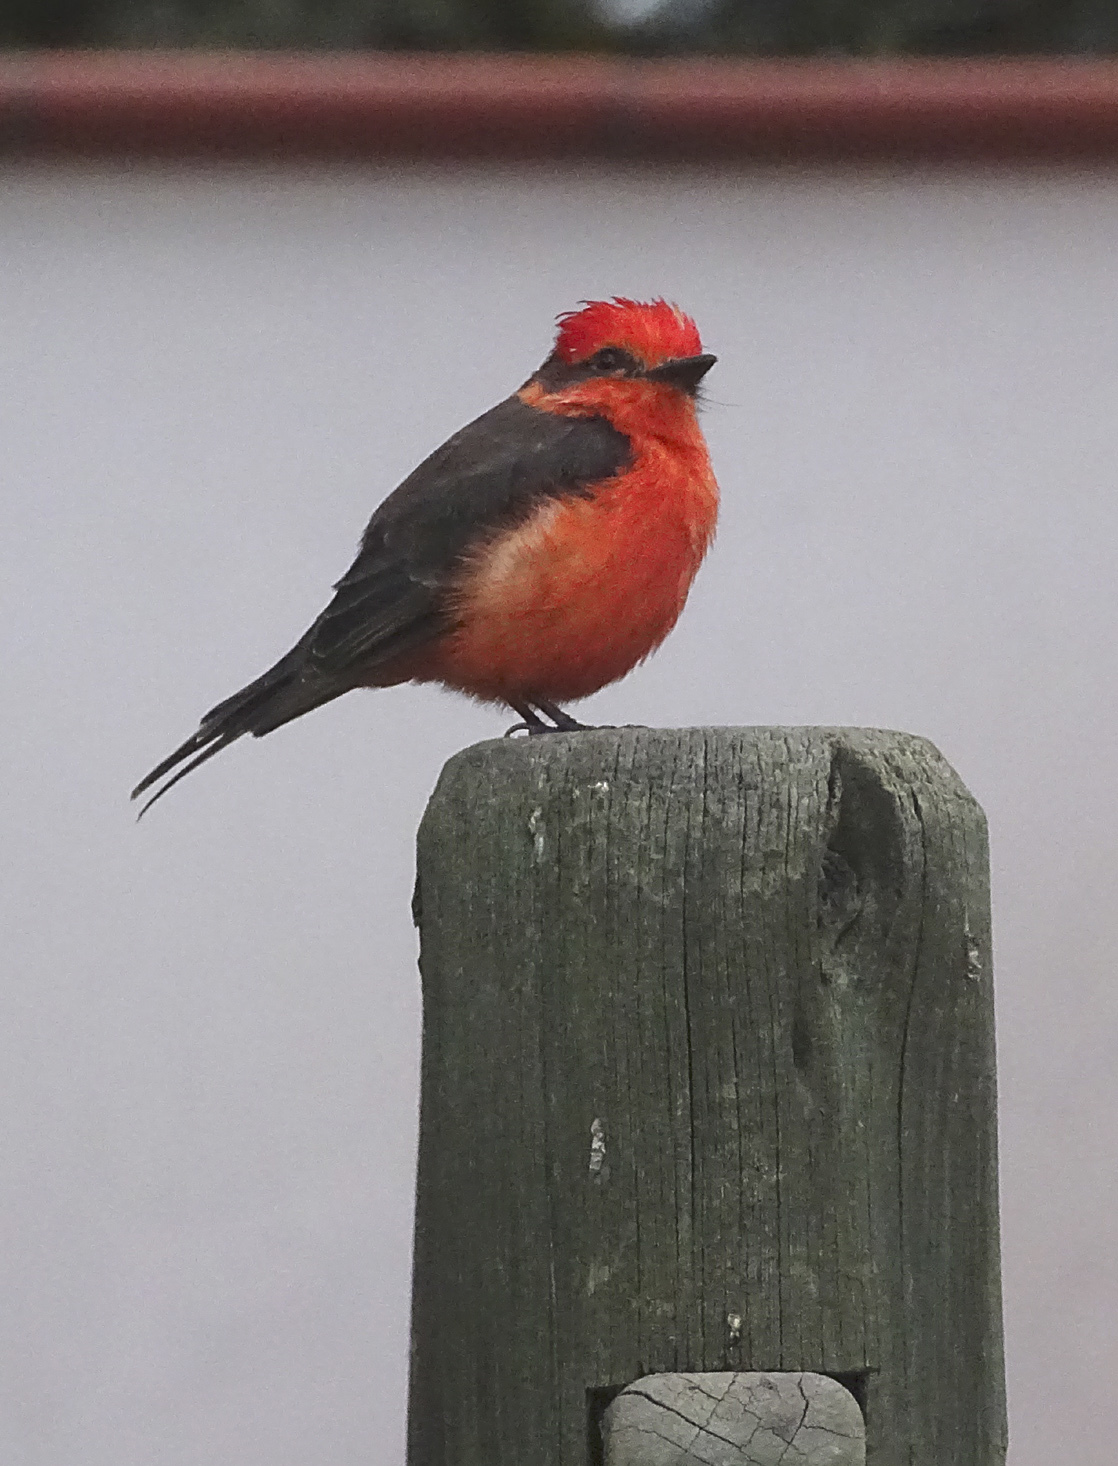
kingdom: Animalia
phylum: Chordata
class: Aves
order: Passeriformes
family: Tyrannidae
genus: Pyrocephalus
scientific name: Pyrocephalus rubinus
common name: Vermilion flycatcher
